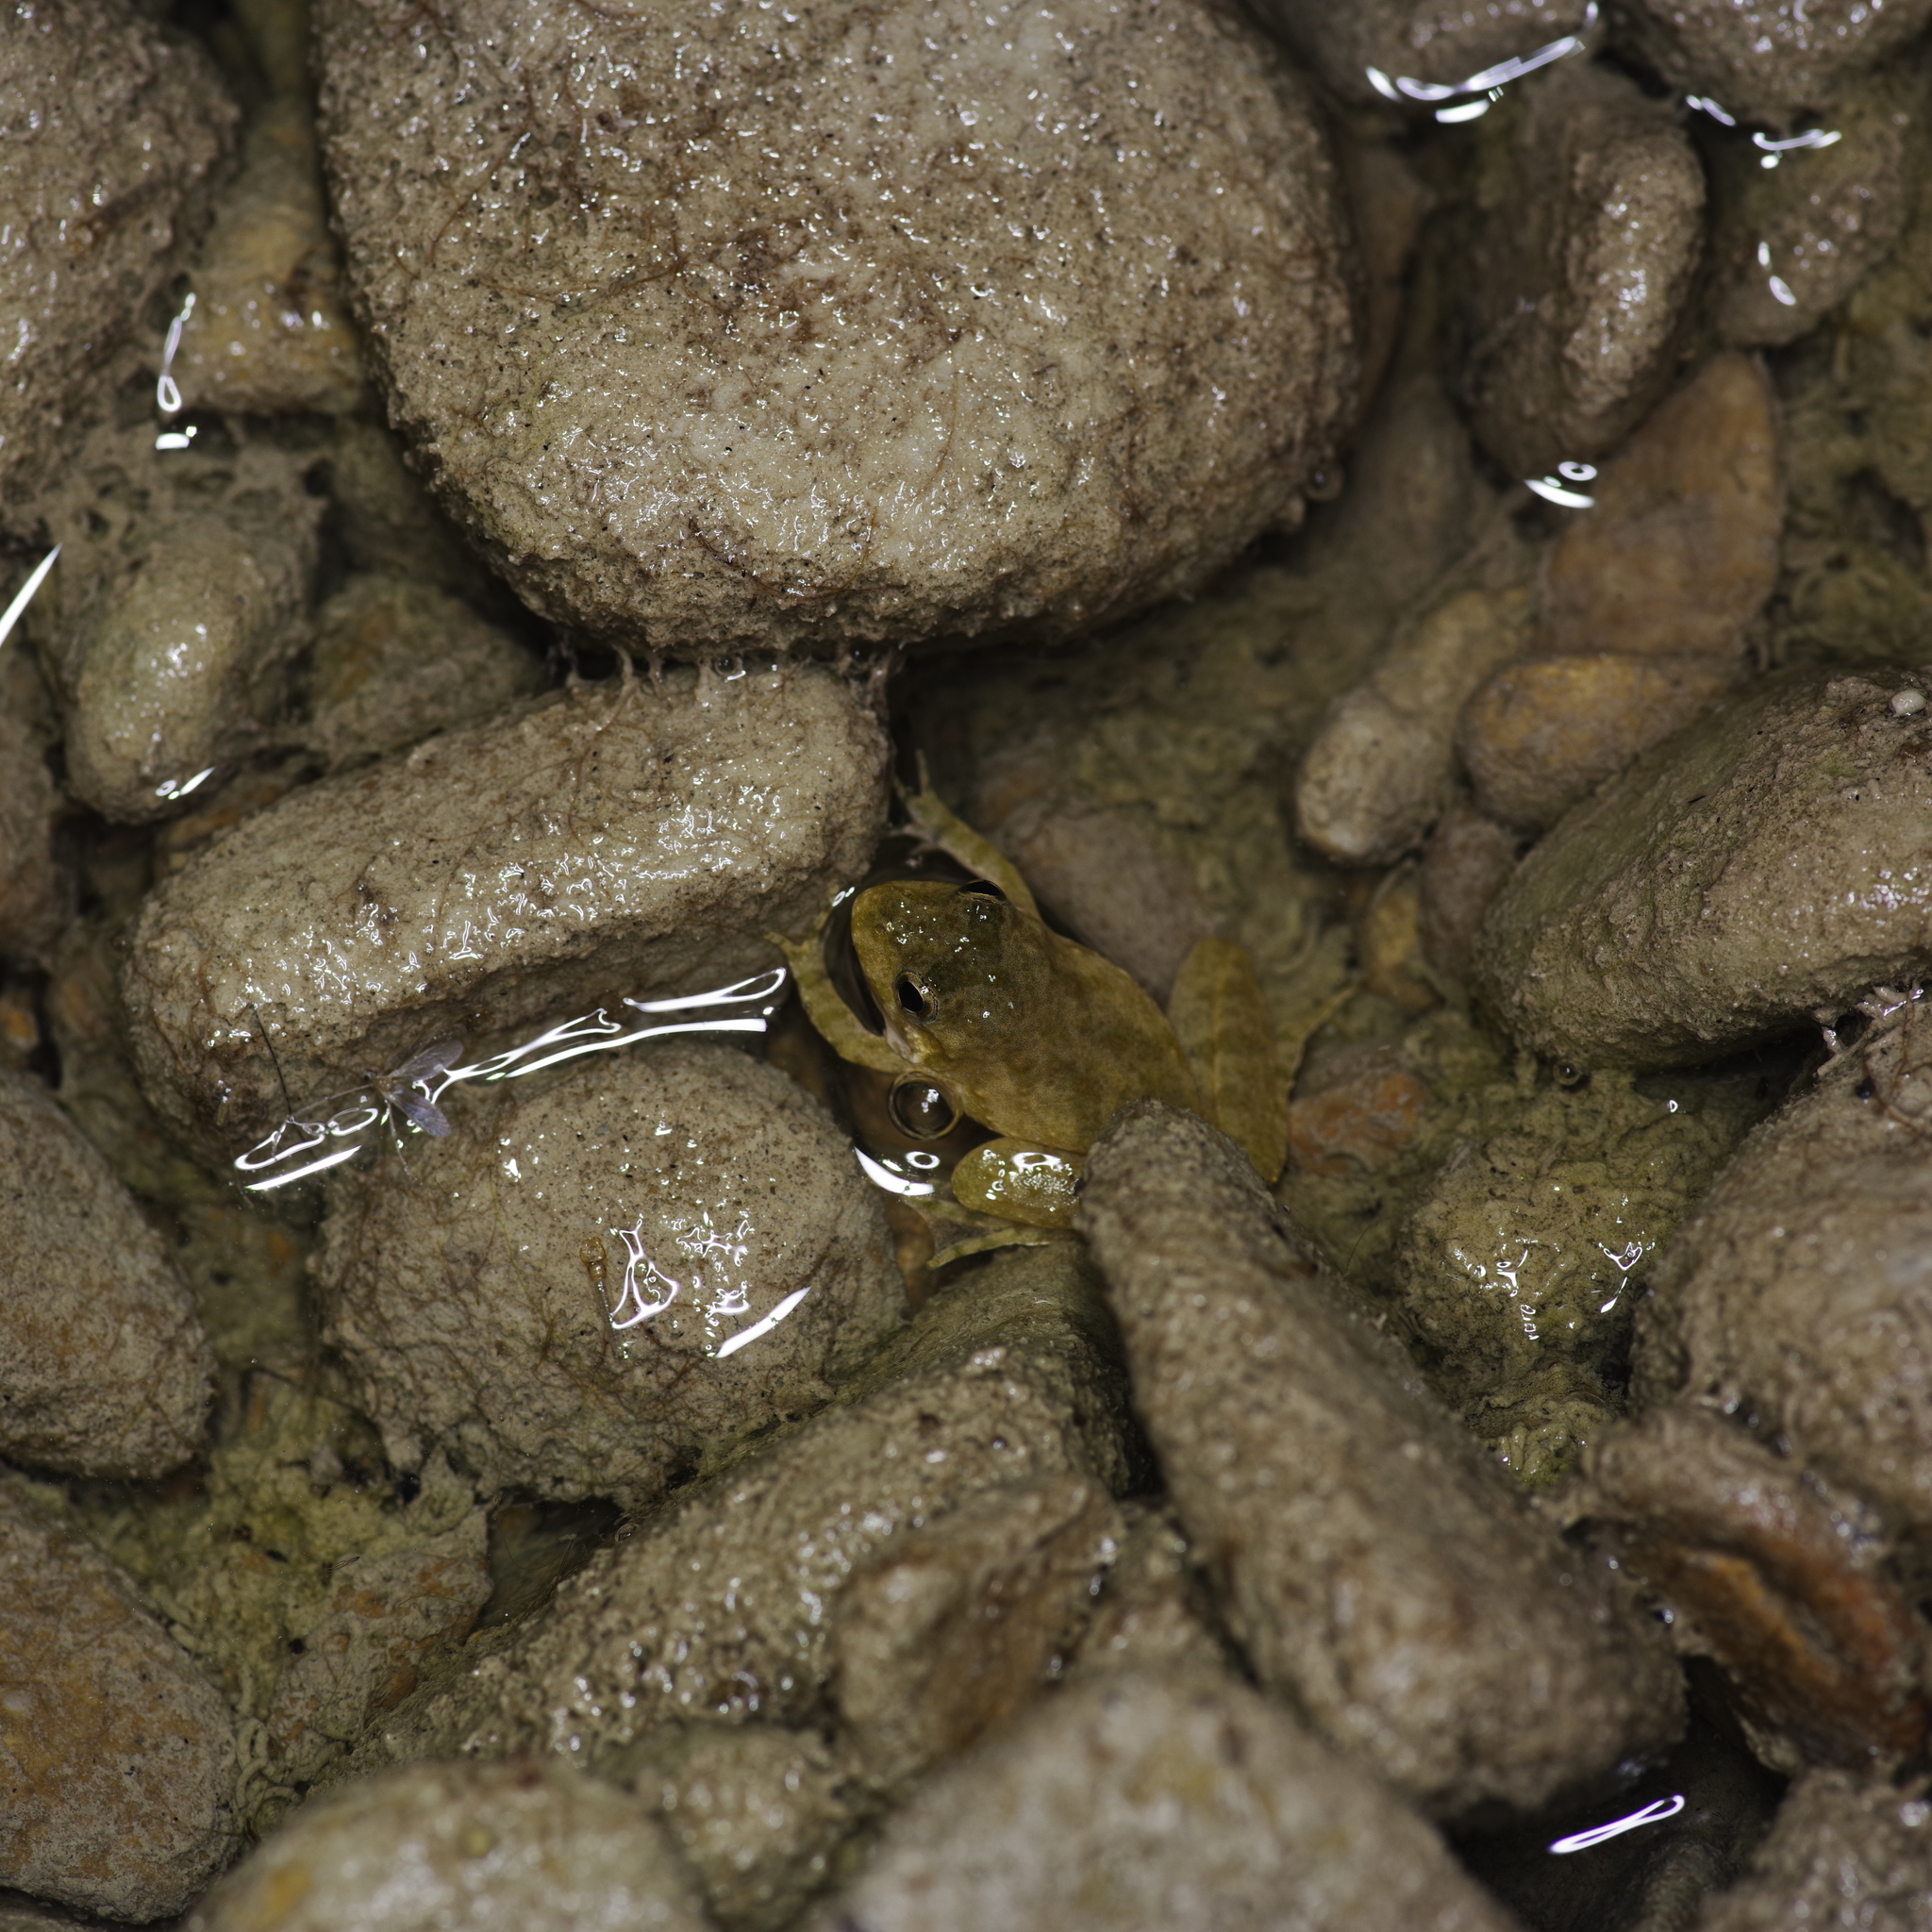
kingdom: Animalia
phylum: Chordata
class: Amphibia
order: Anura
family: Hylidae
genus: Acris
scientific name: Acris blanchardi
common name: Blanchard's cricket frog
